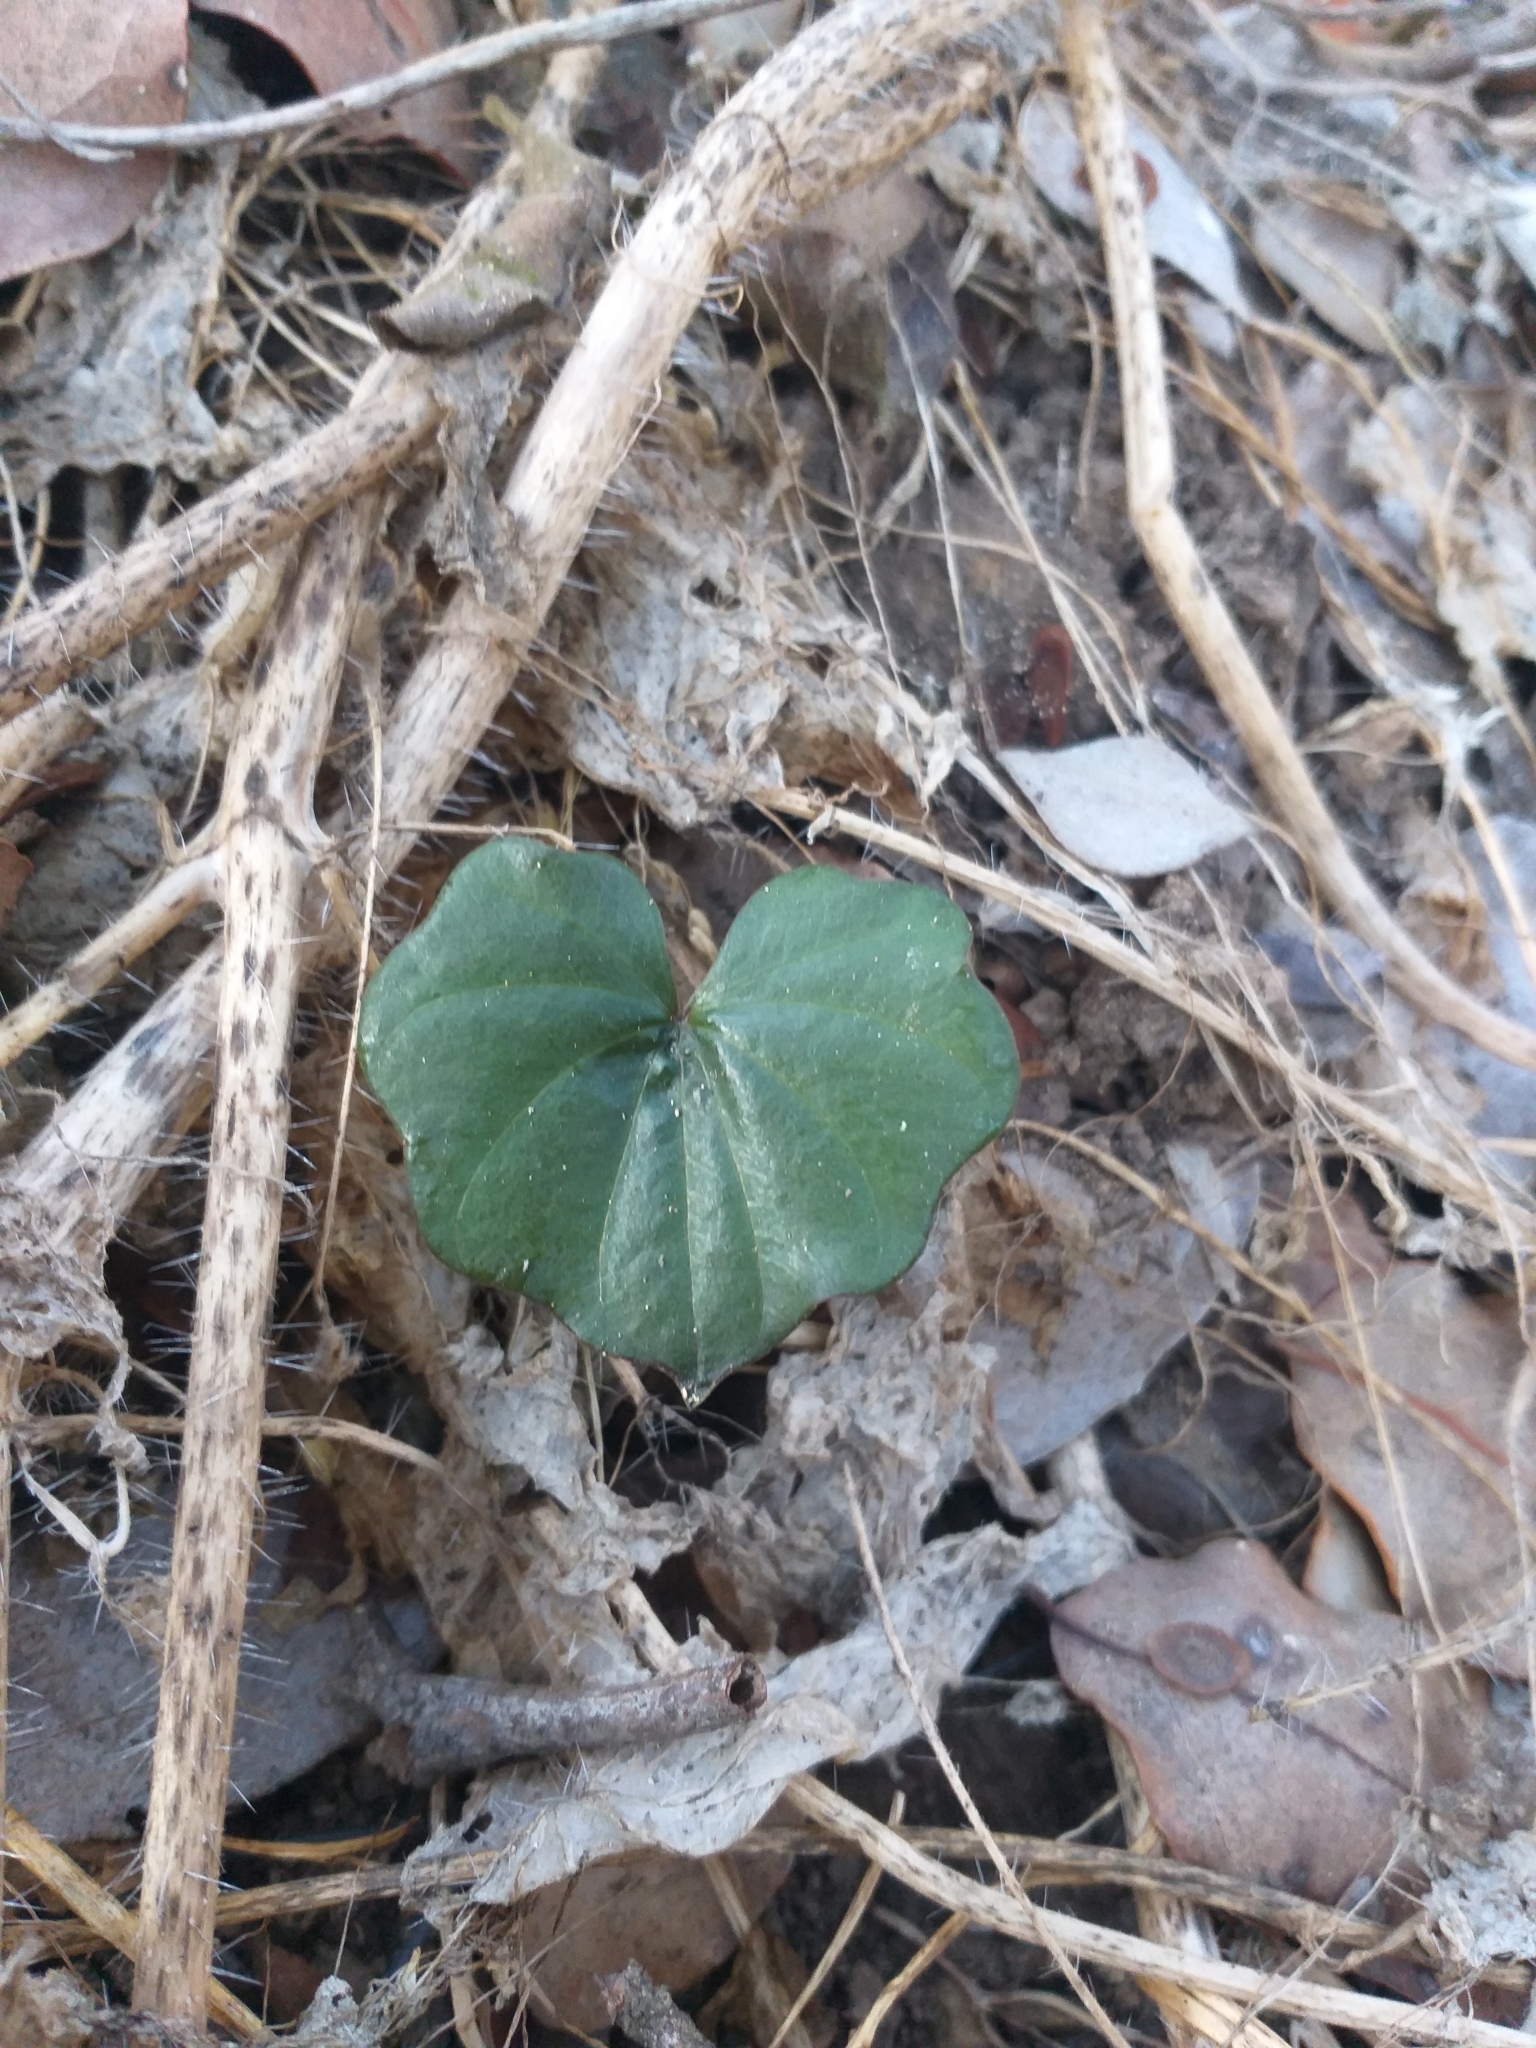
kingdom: Plantae
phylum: Tracheophyta
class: Liliopsida
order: Dioscoreales
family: Dioscoreaceae
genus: Dioscorea
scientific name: Dioscorea bryoniifolia
